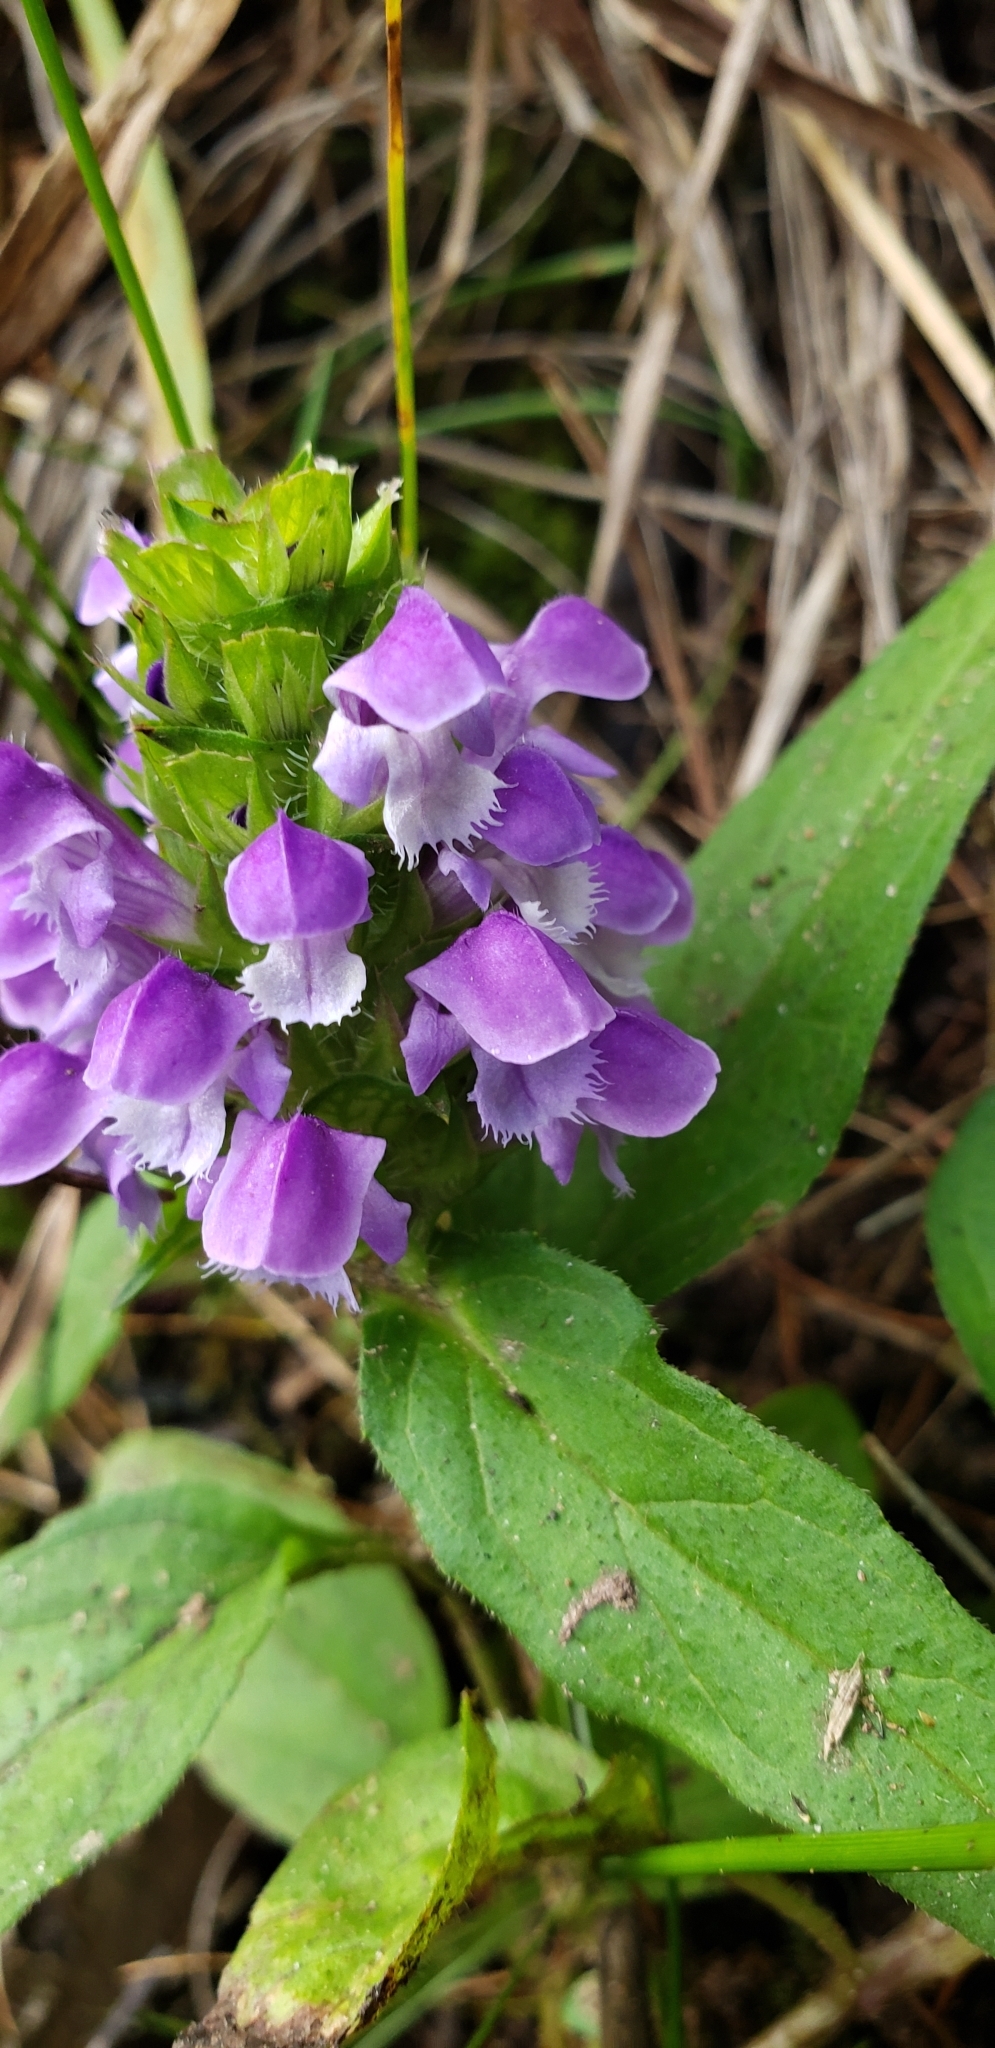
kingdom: Plantae
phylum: Tracheophyta
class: Magnoliopsida
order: Lamiales
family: Lamiaceae
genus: Prunella
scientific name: Prunella vulgaris
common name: Heal-all
